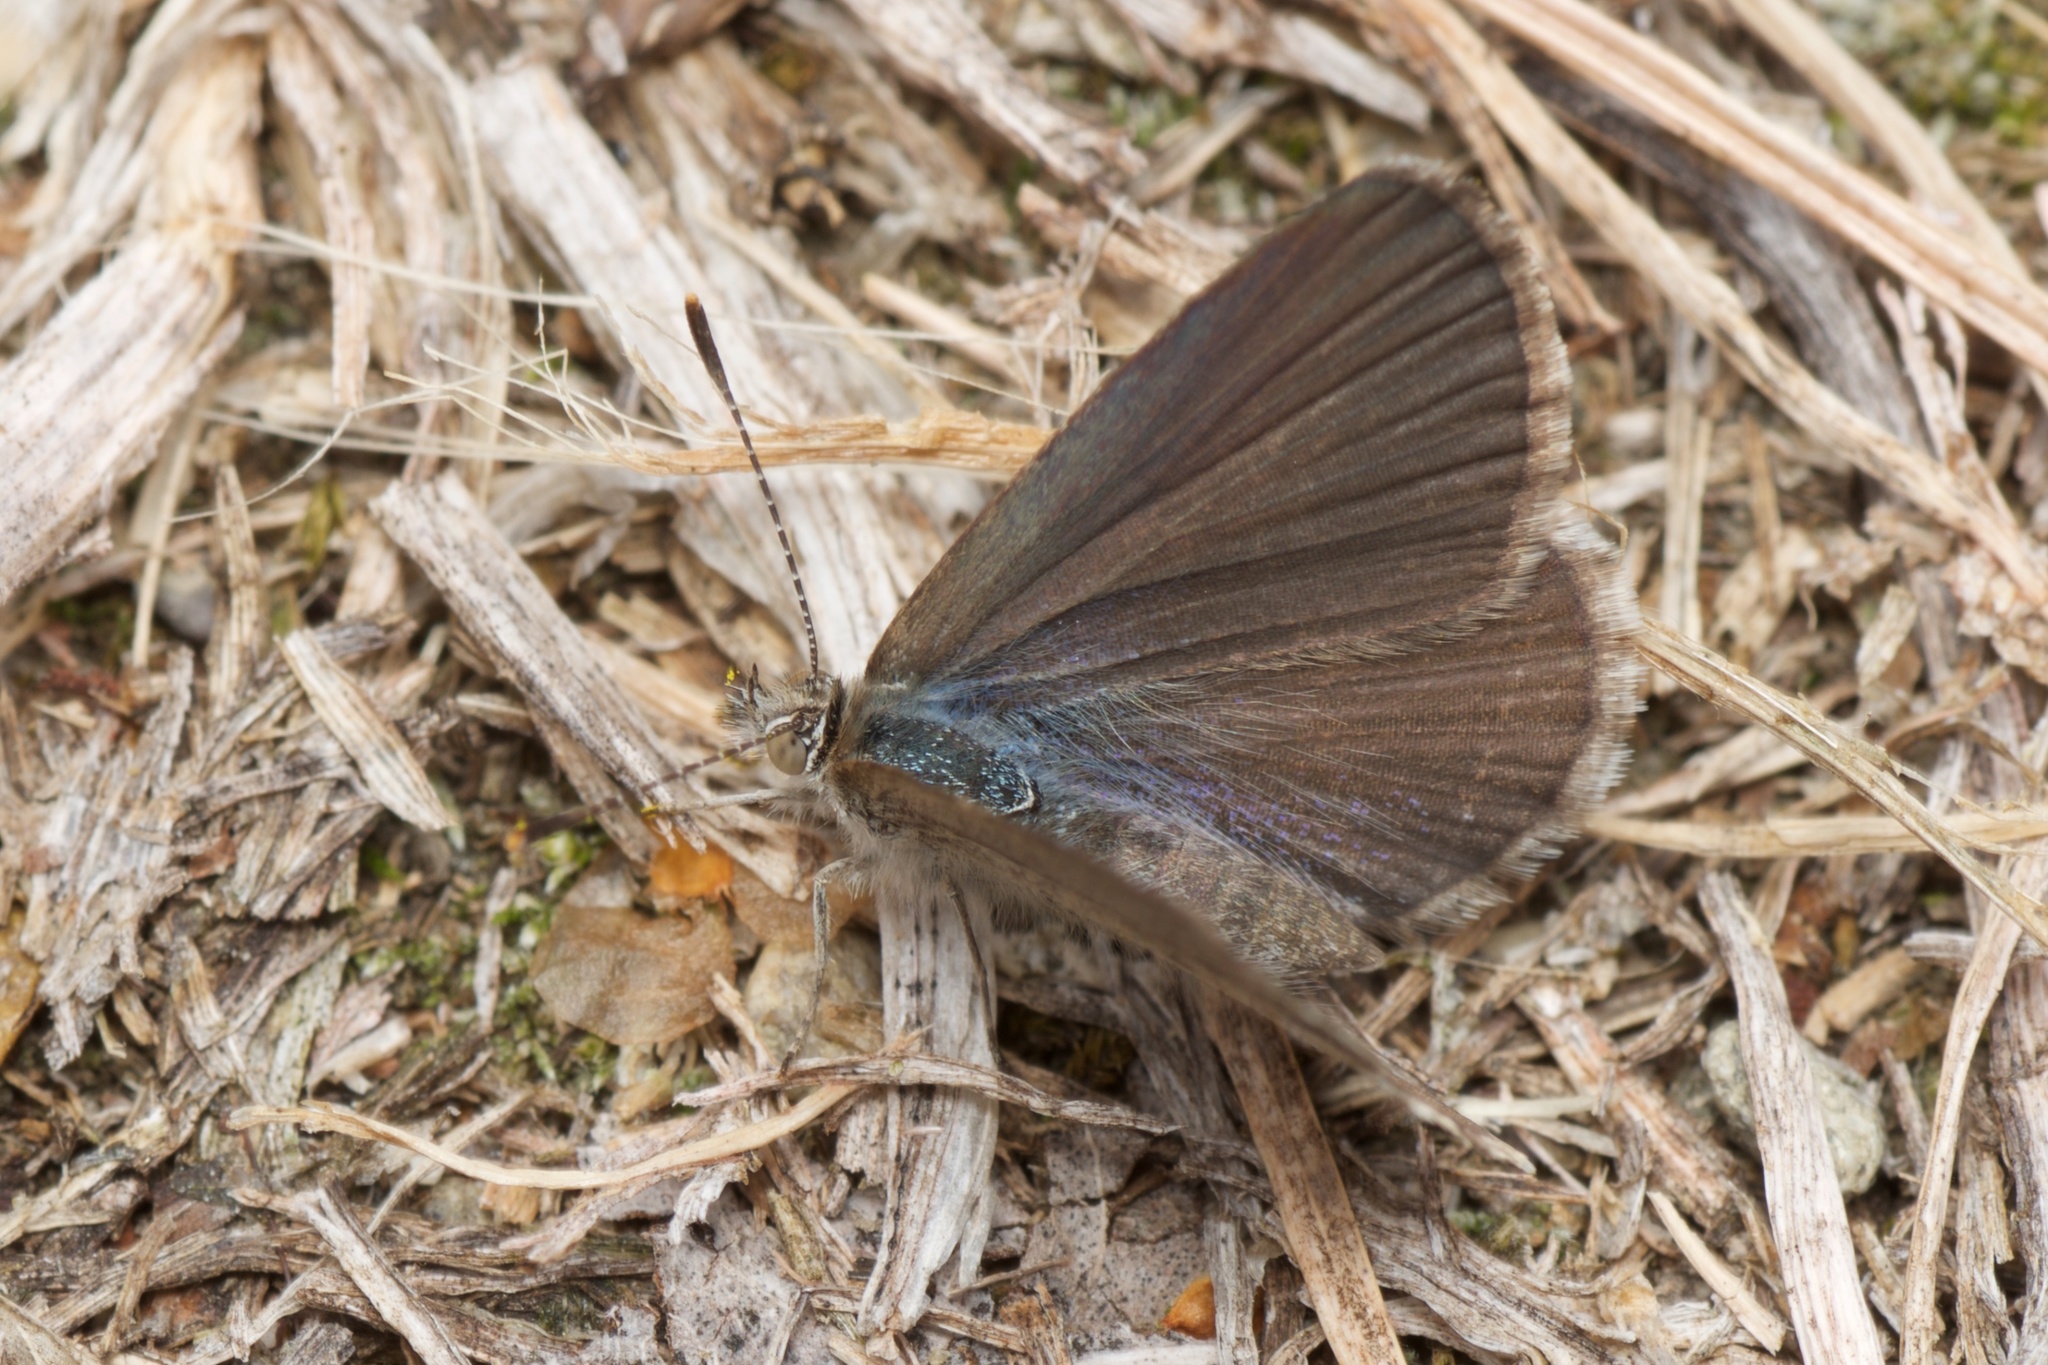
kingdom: Animalia
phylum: Arthropoda
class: Insecta
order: Lepidoptera
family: Lycaenidae
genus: Zizina
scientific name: Zizina oxleyi
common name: Southern blue
